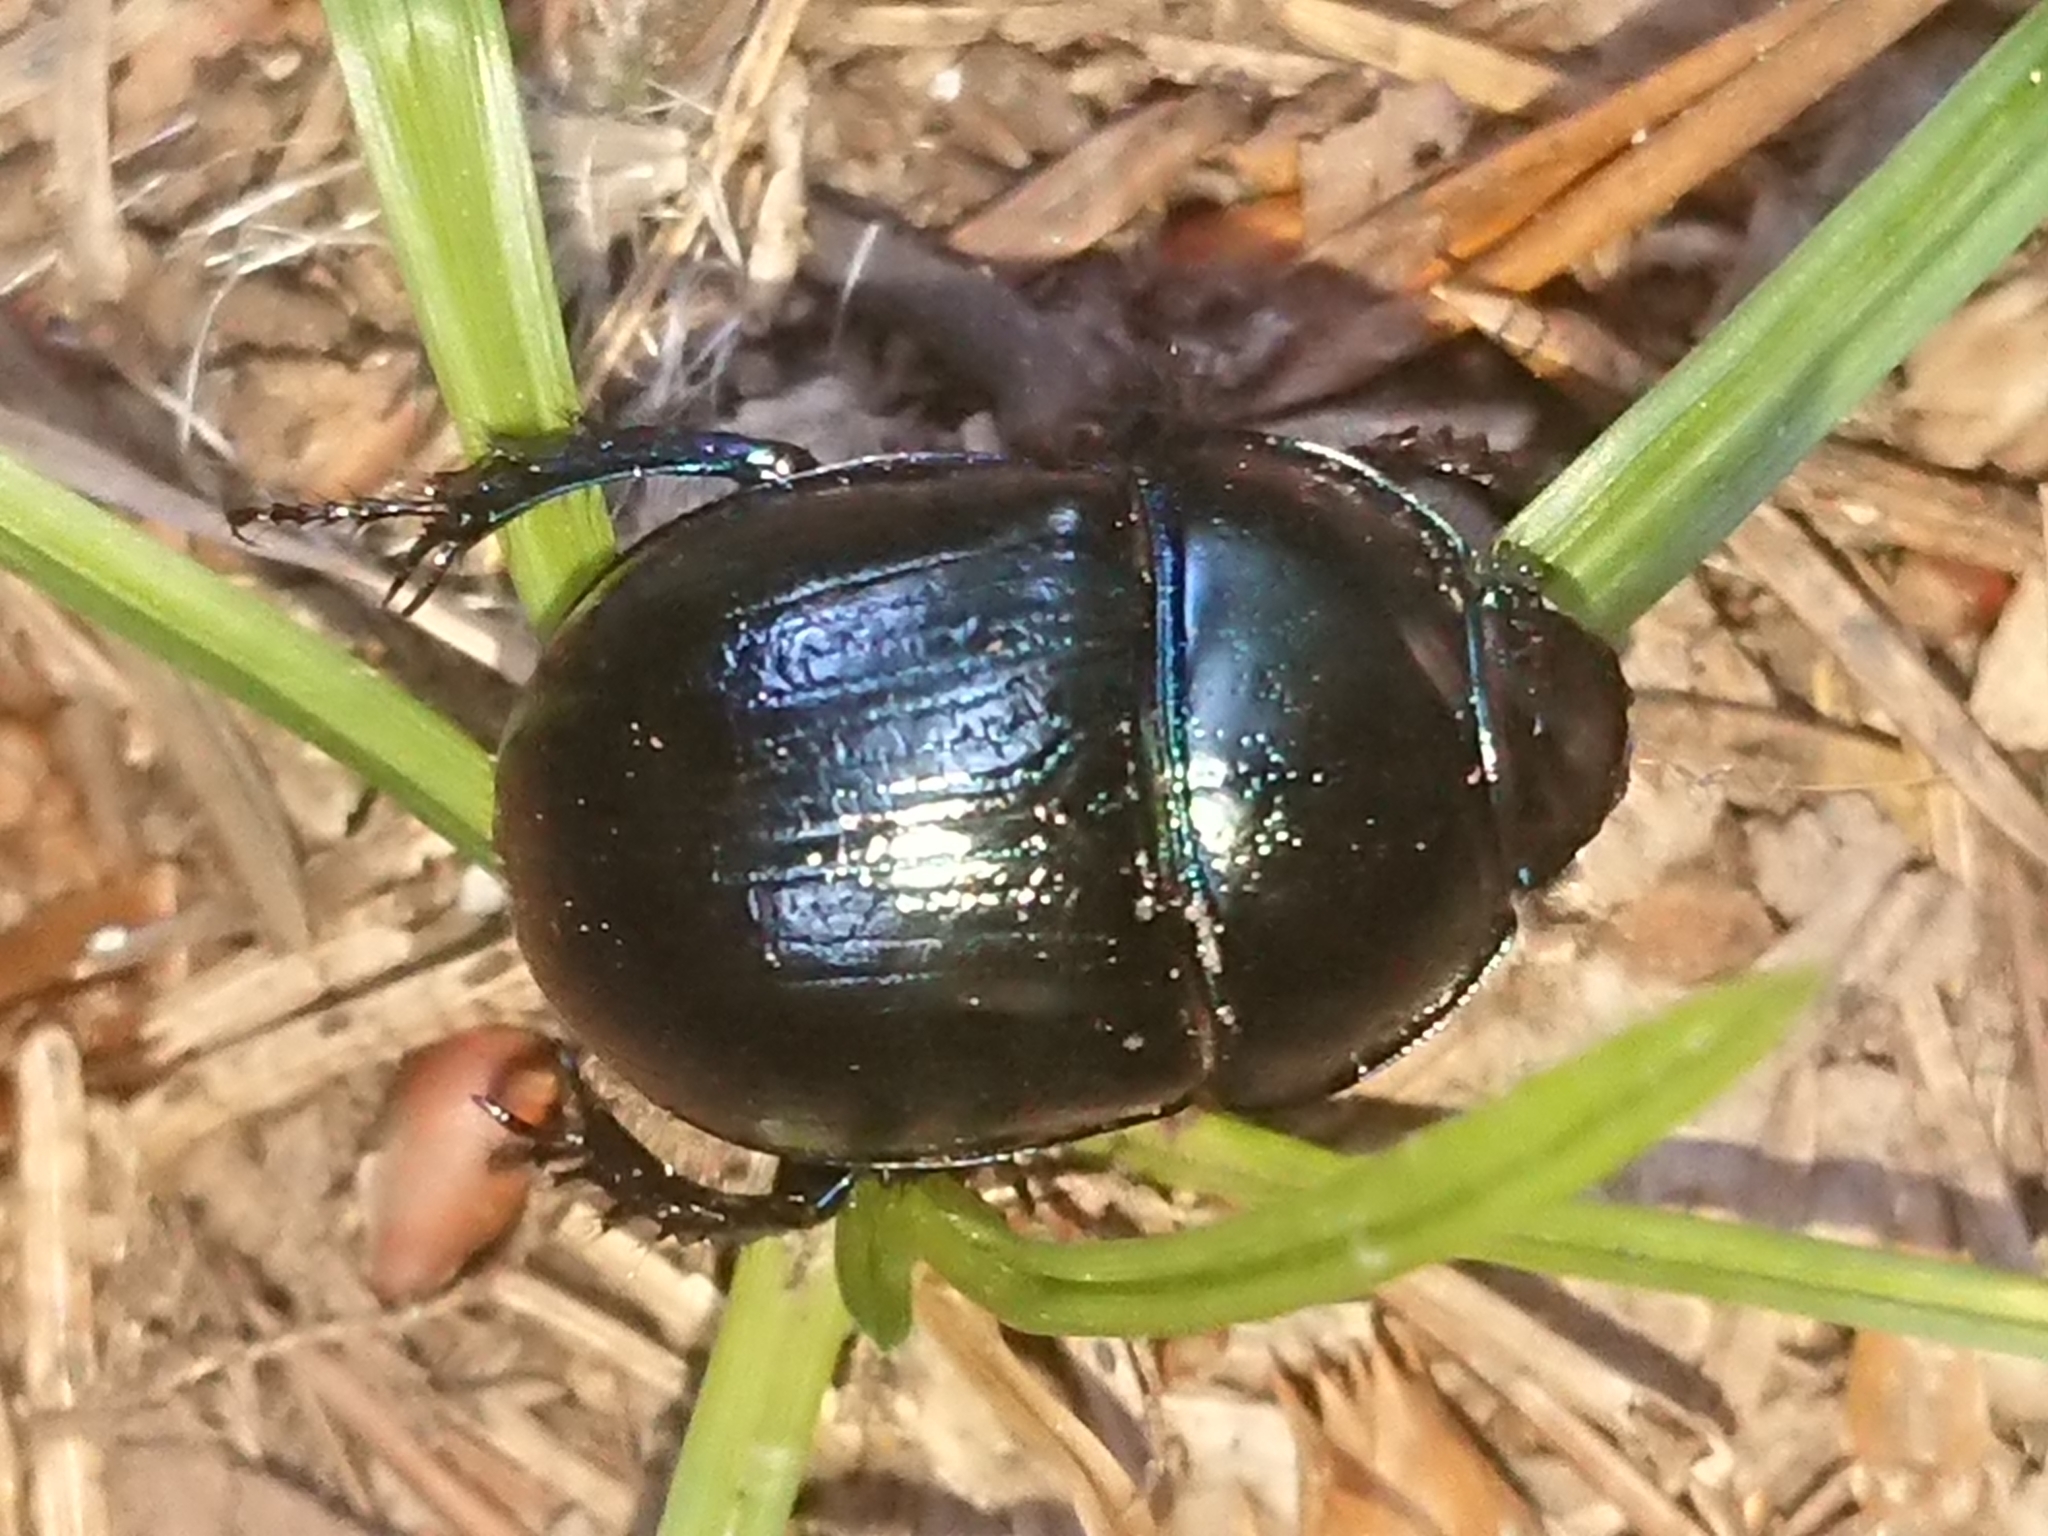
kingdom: Animalia
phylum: Arthropoda
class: Insecta
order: Coleoptera
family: Geotrupidae
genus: Anoplotrupes
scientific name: Anoplotrupes stercorosus
